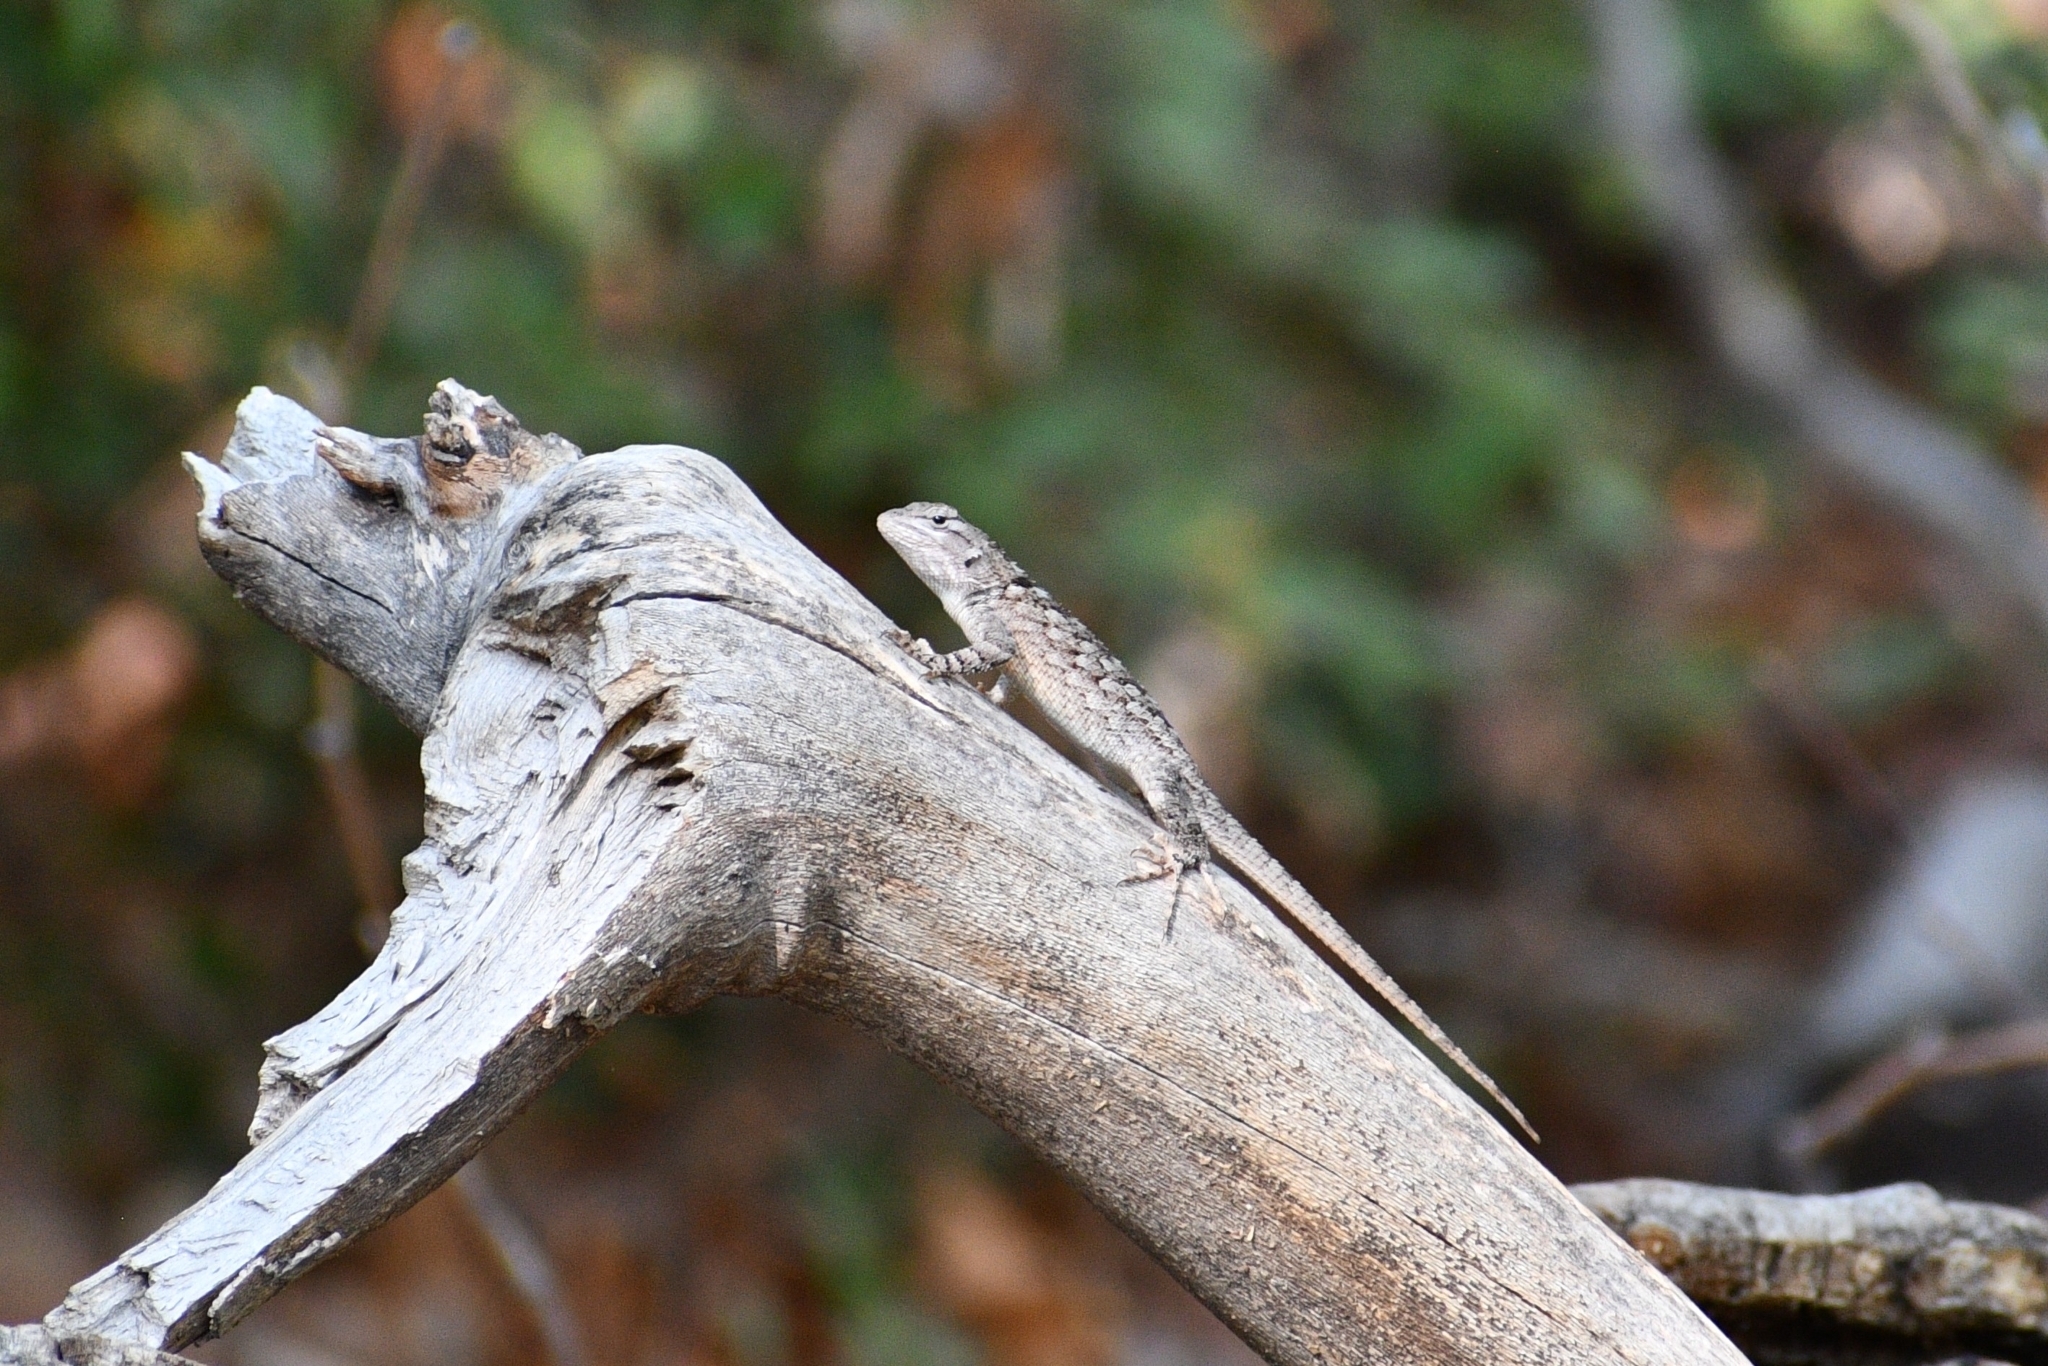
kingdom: Animalia
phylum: Chordata
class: Squamata
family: Phrynosomatidae
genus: Sceloporus
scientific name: Sceloporus clarkii
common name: Clark's spiny lizard
